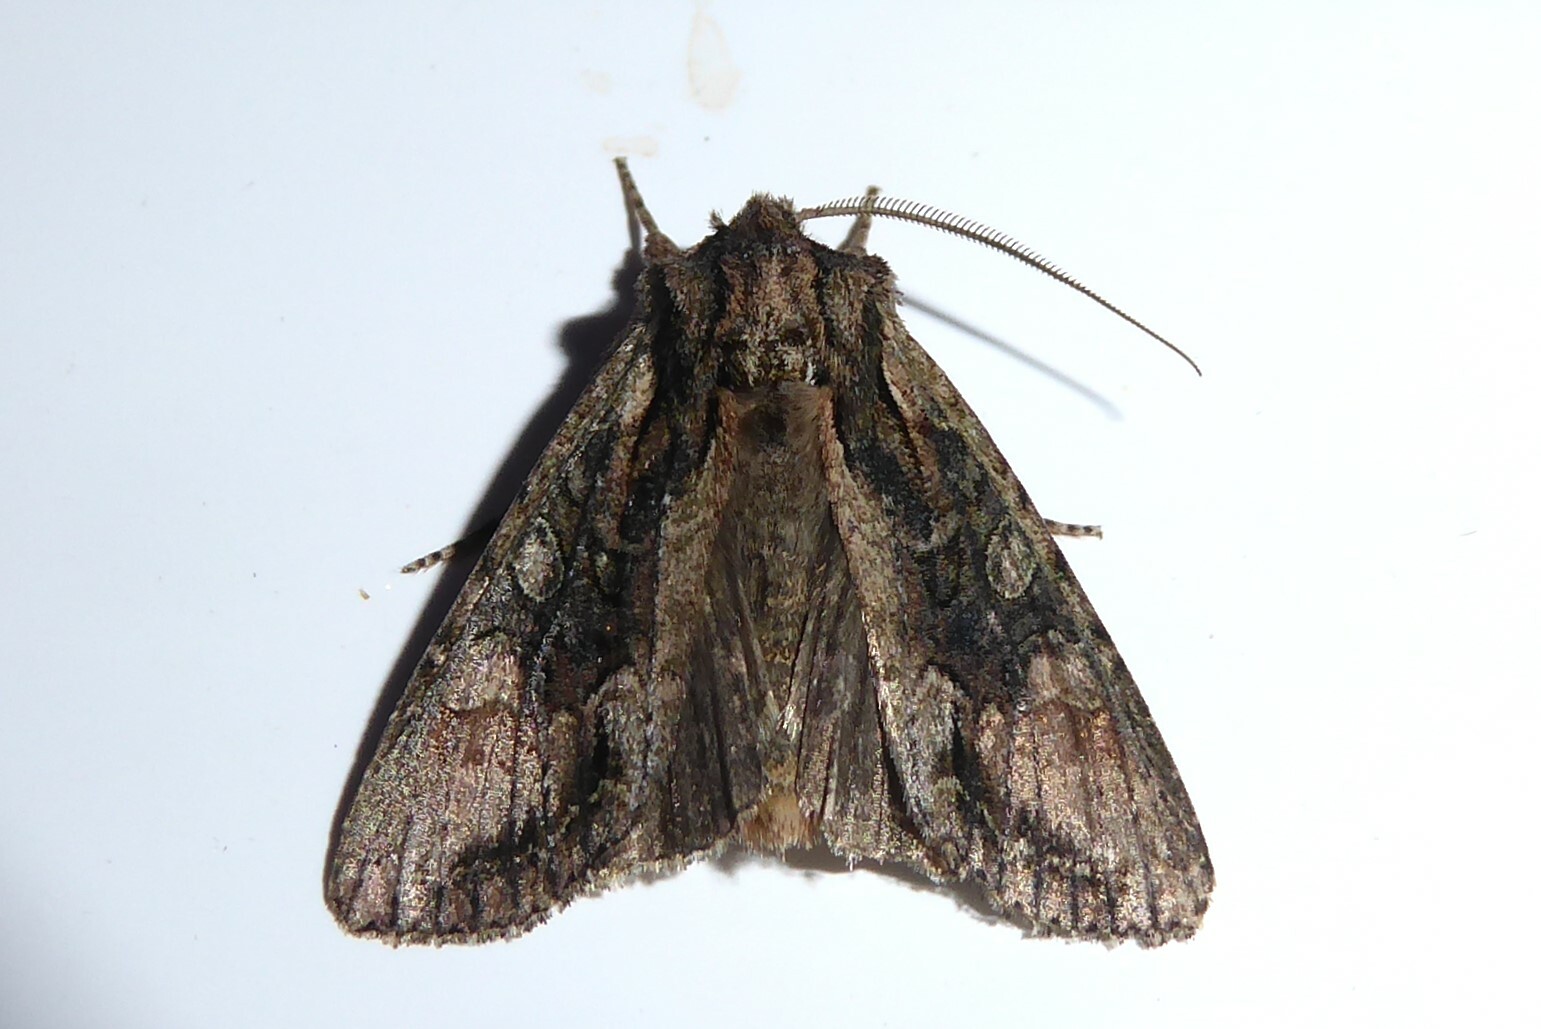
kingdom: Animalia
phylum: Arthropoda
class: Insecta
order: Lepidoptera
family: Noctuidae
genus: Ichneutica
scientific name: Ichneutica mutans
